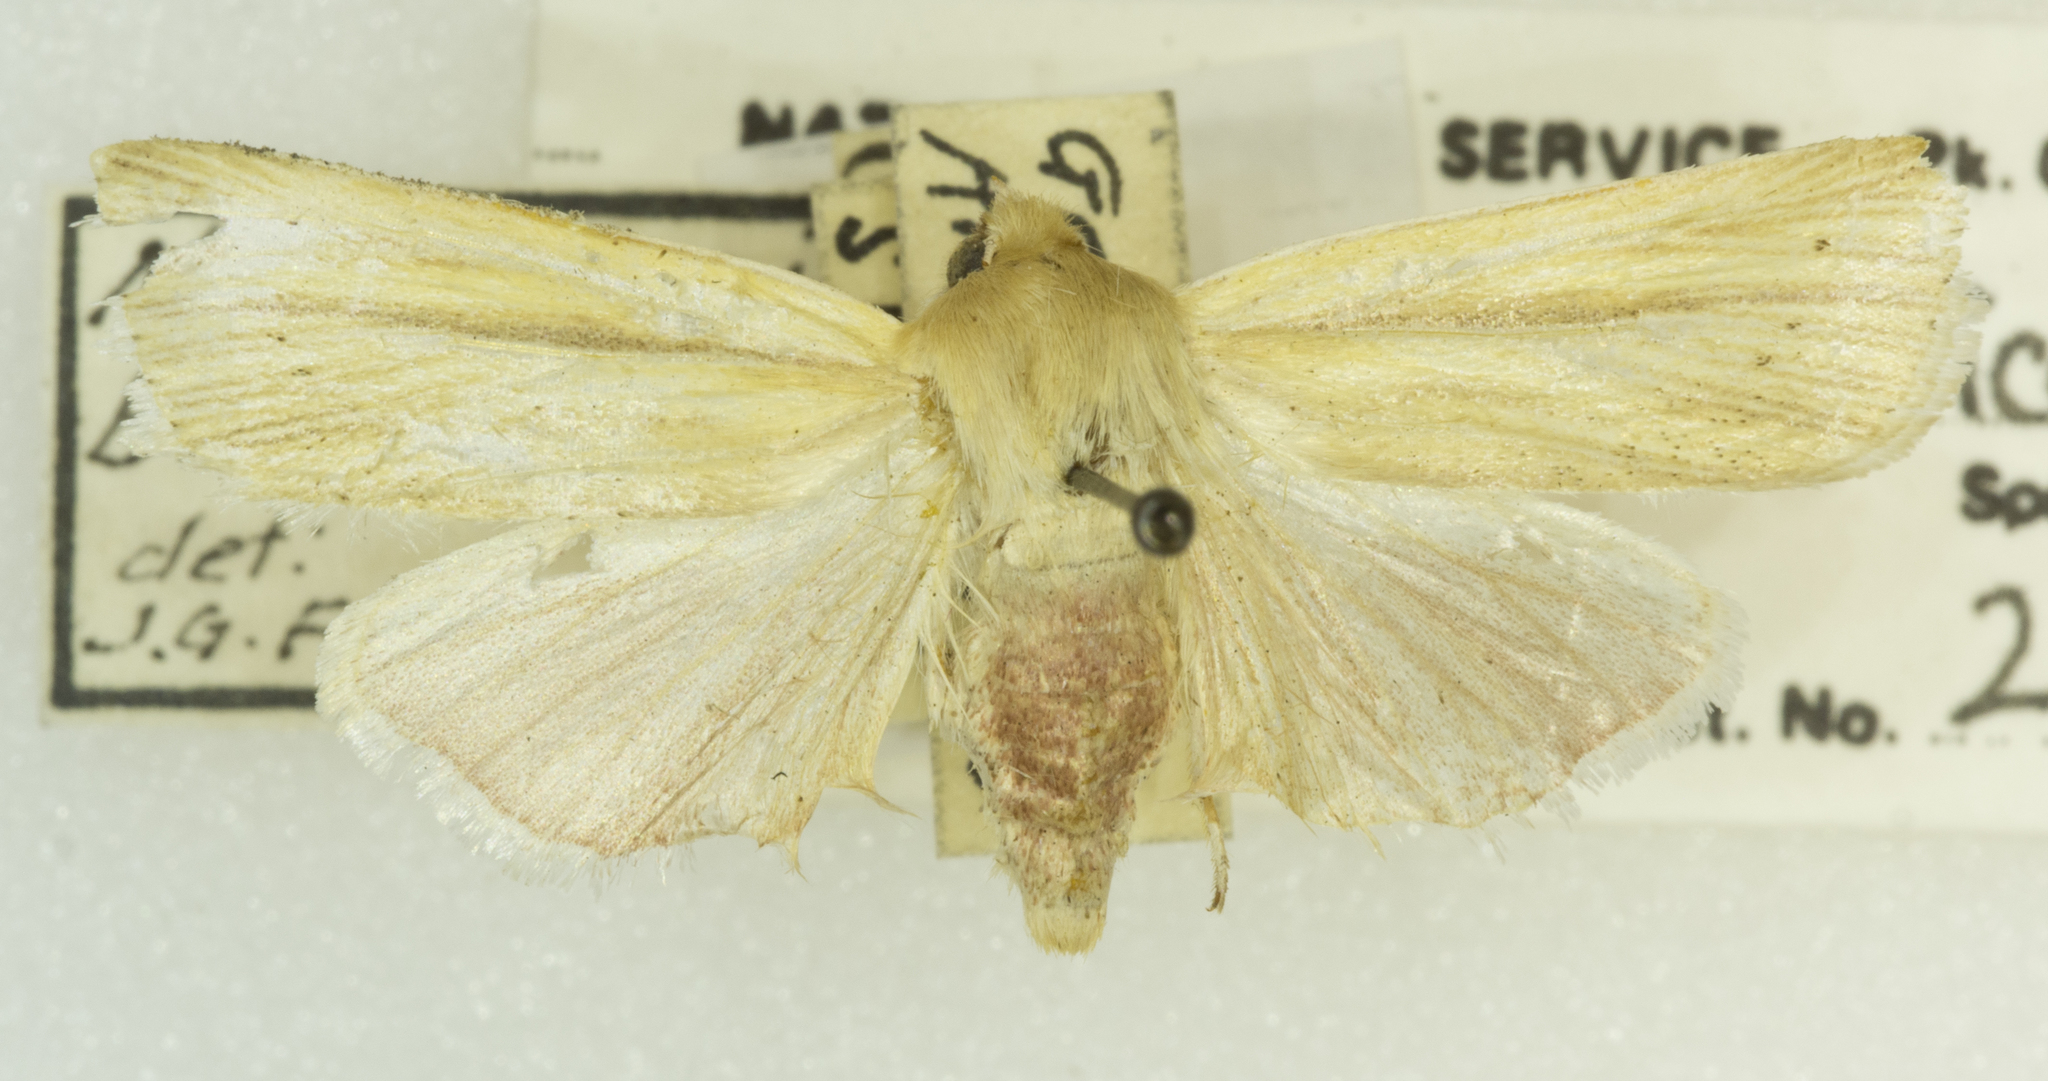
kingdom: Animalia
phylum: Arthropoda
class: Insecta
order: Lepidoptera
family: Noctuidae
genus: Neleucania
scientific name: Neleucania praegracilis
